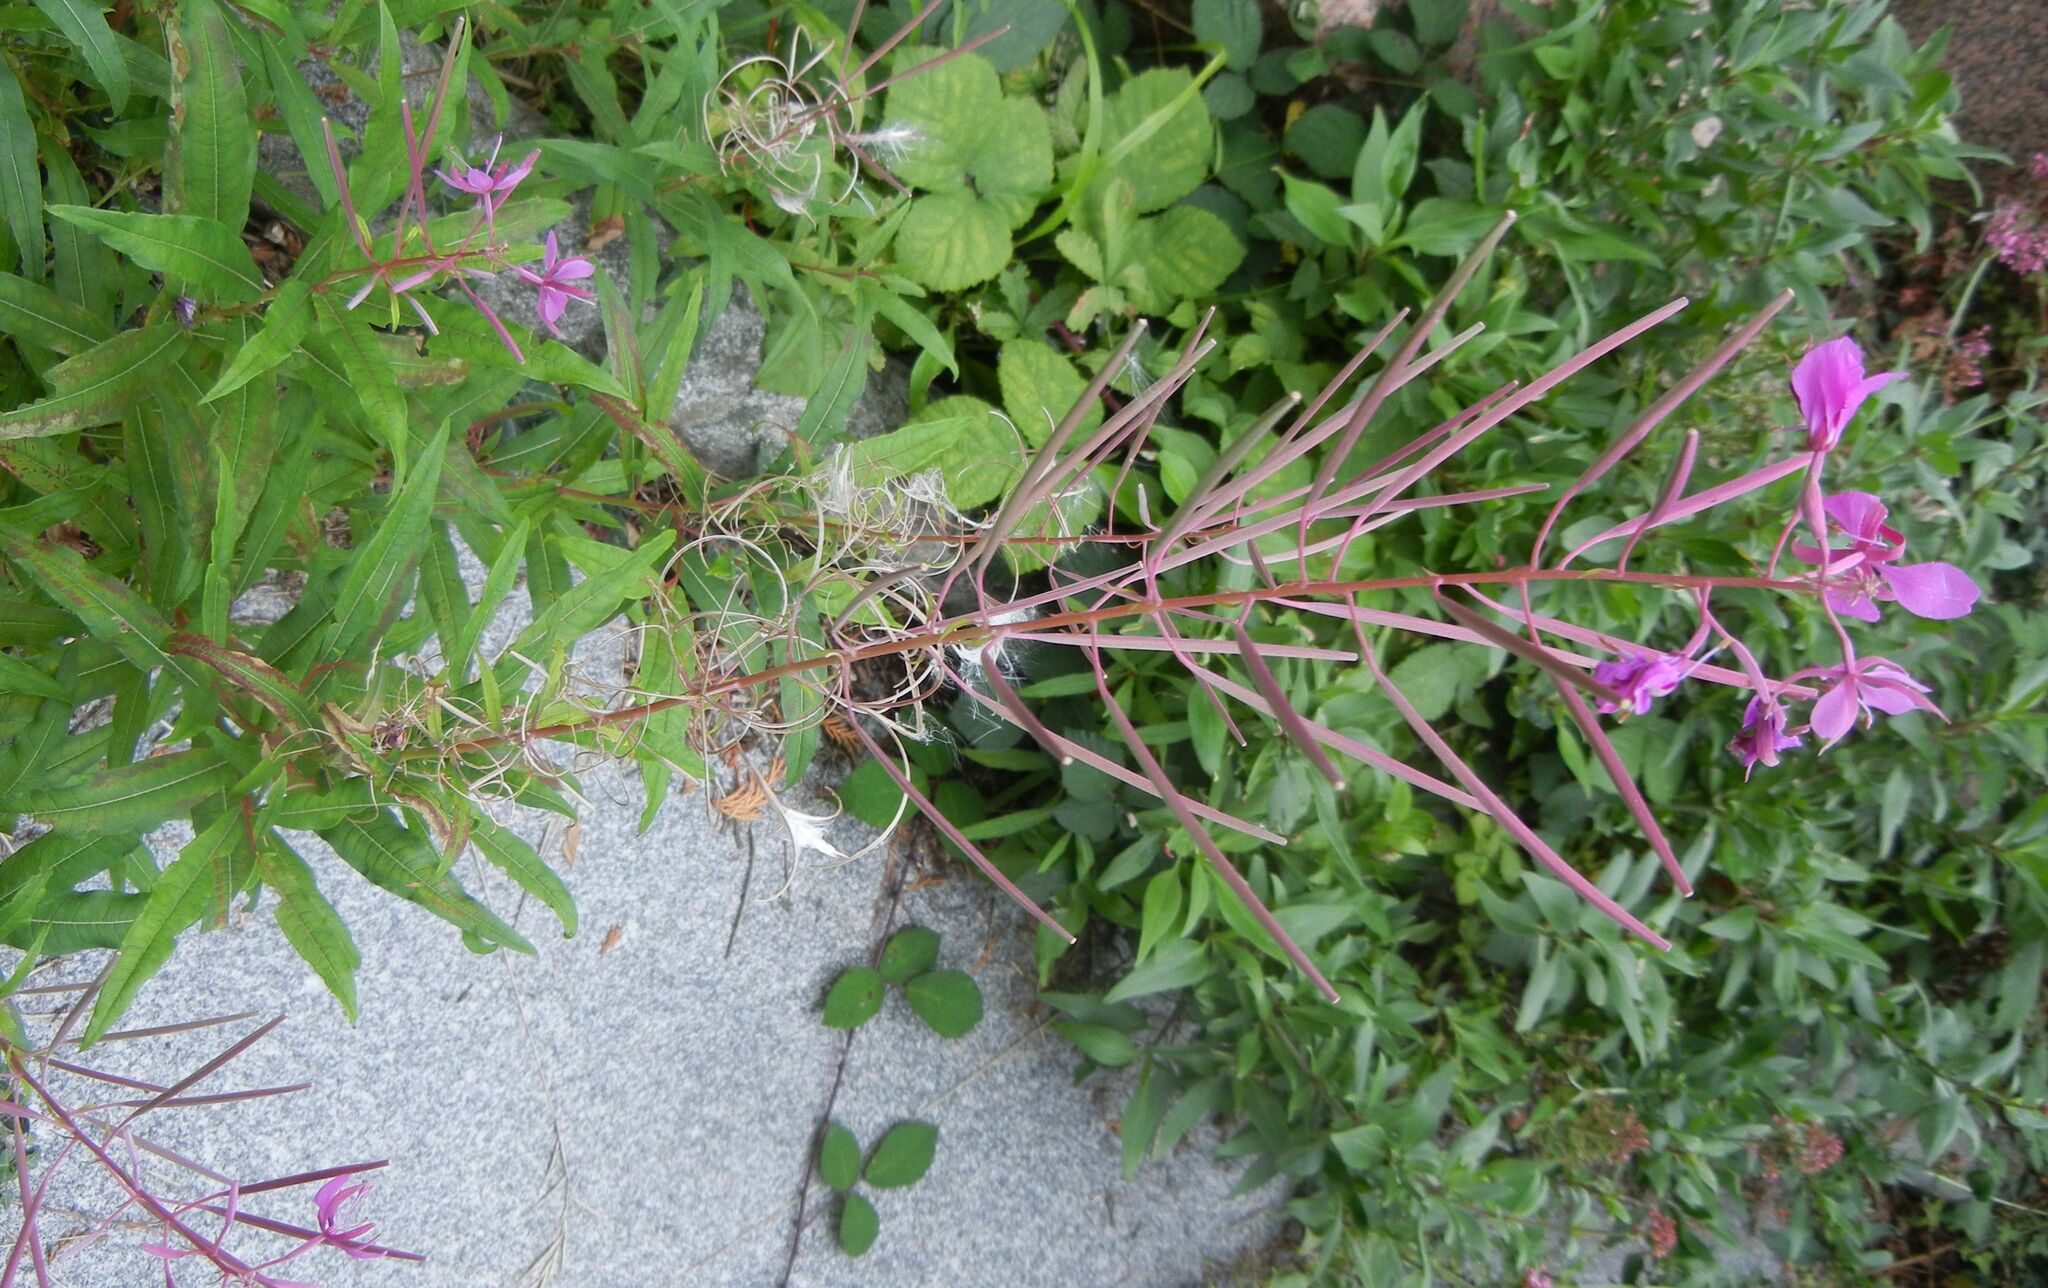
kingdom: Plantae
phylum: Tracheophyta
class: Magnoliopsida
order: Myrtales
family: Onagraceae
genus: Chamaenerion
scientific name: Chamaenerion angustifolium
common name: Fireweed
